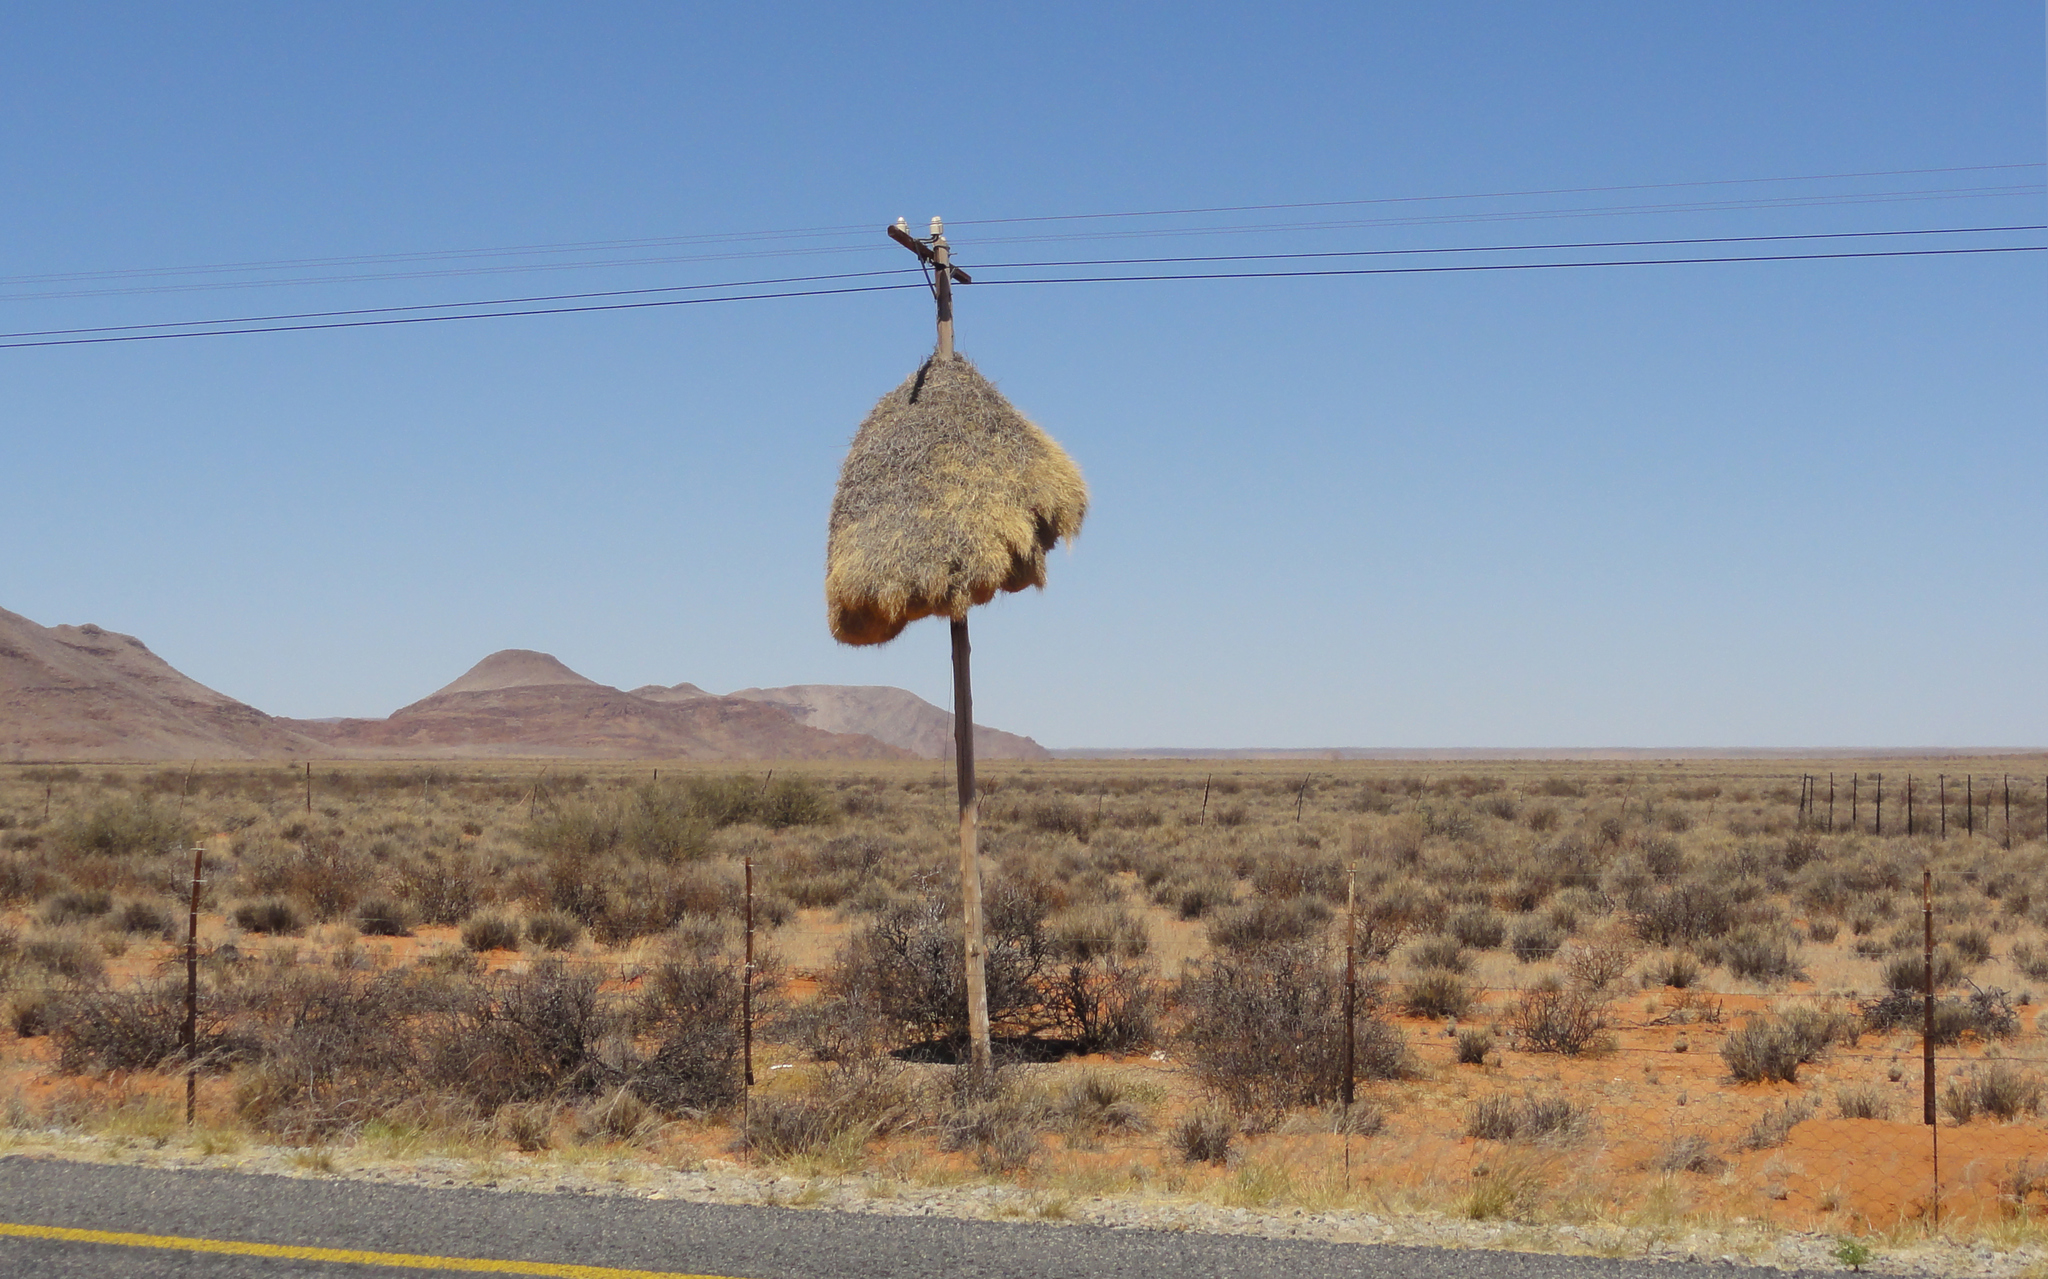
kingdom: Animalia
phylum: Chordata
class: Aves
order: Passeriformes
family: Passeridae
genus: Philetairus
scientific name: Philetairus socius
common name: Sociable weaver
